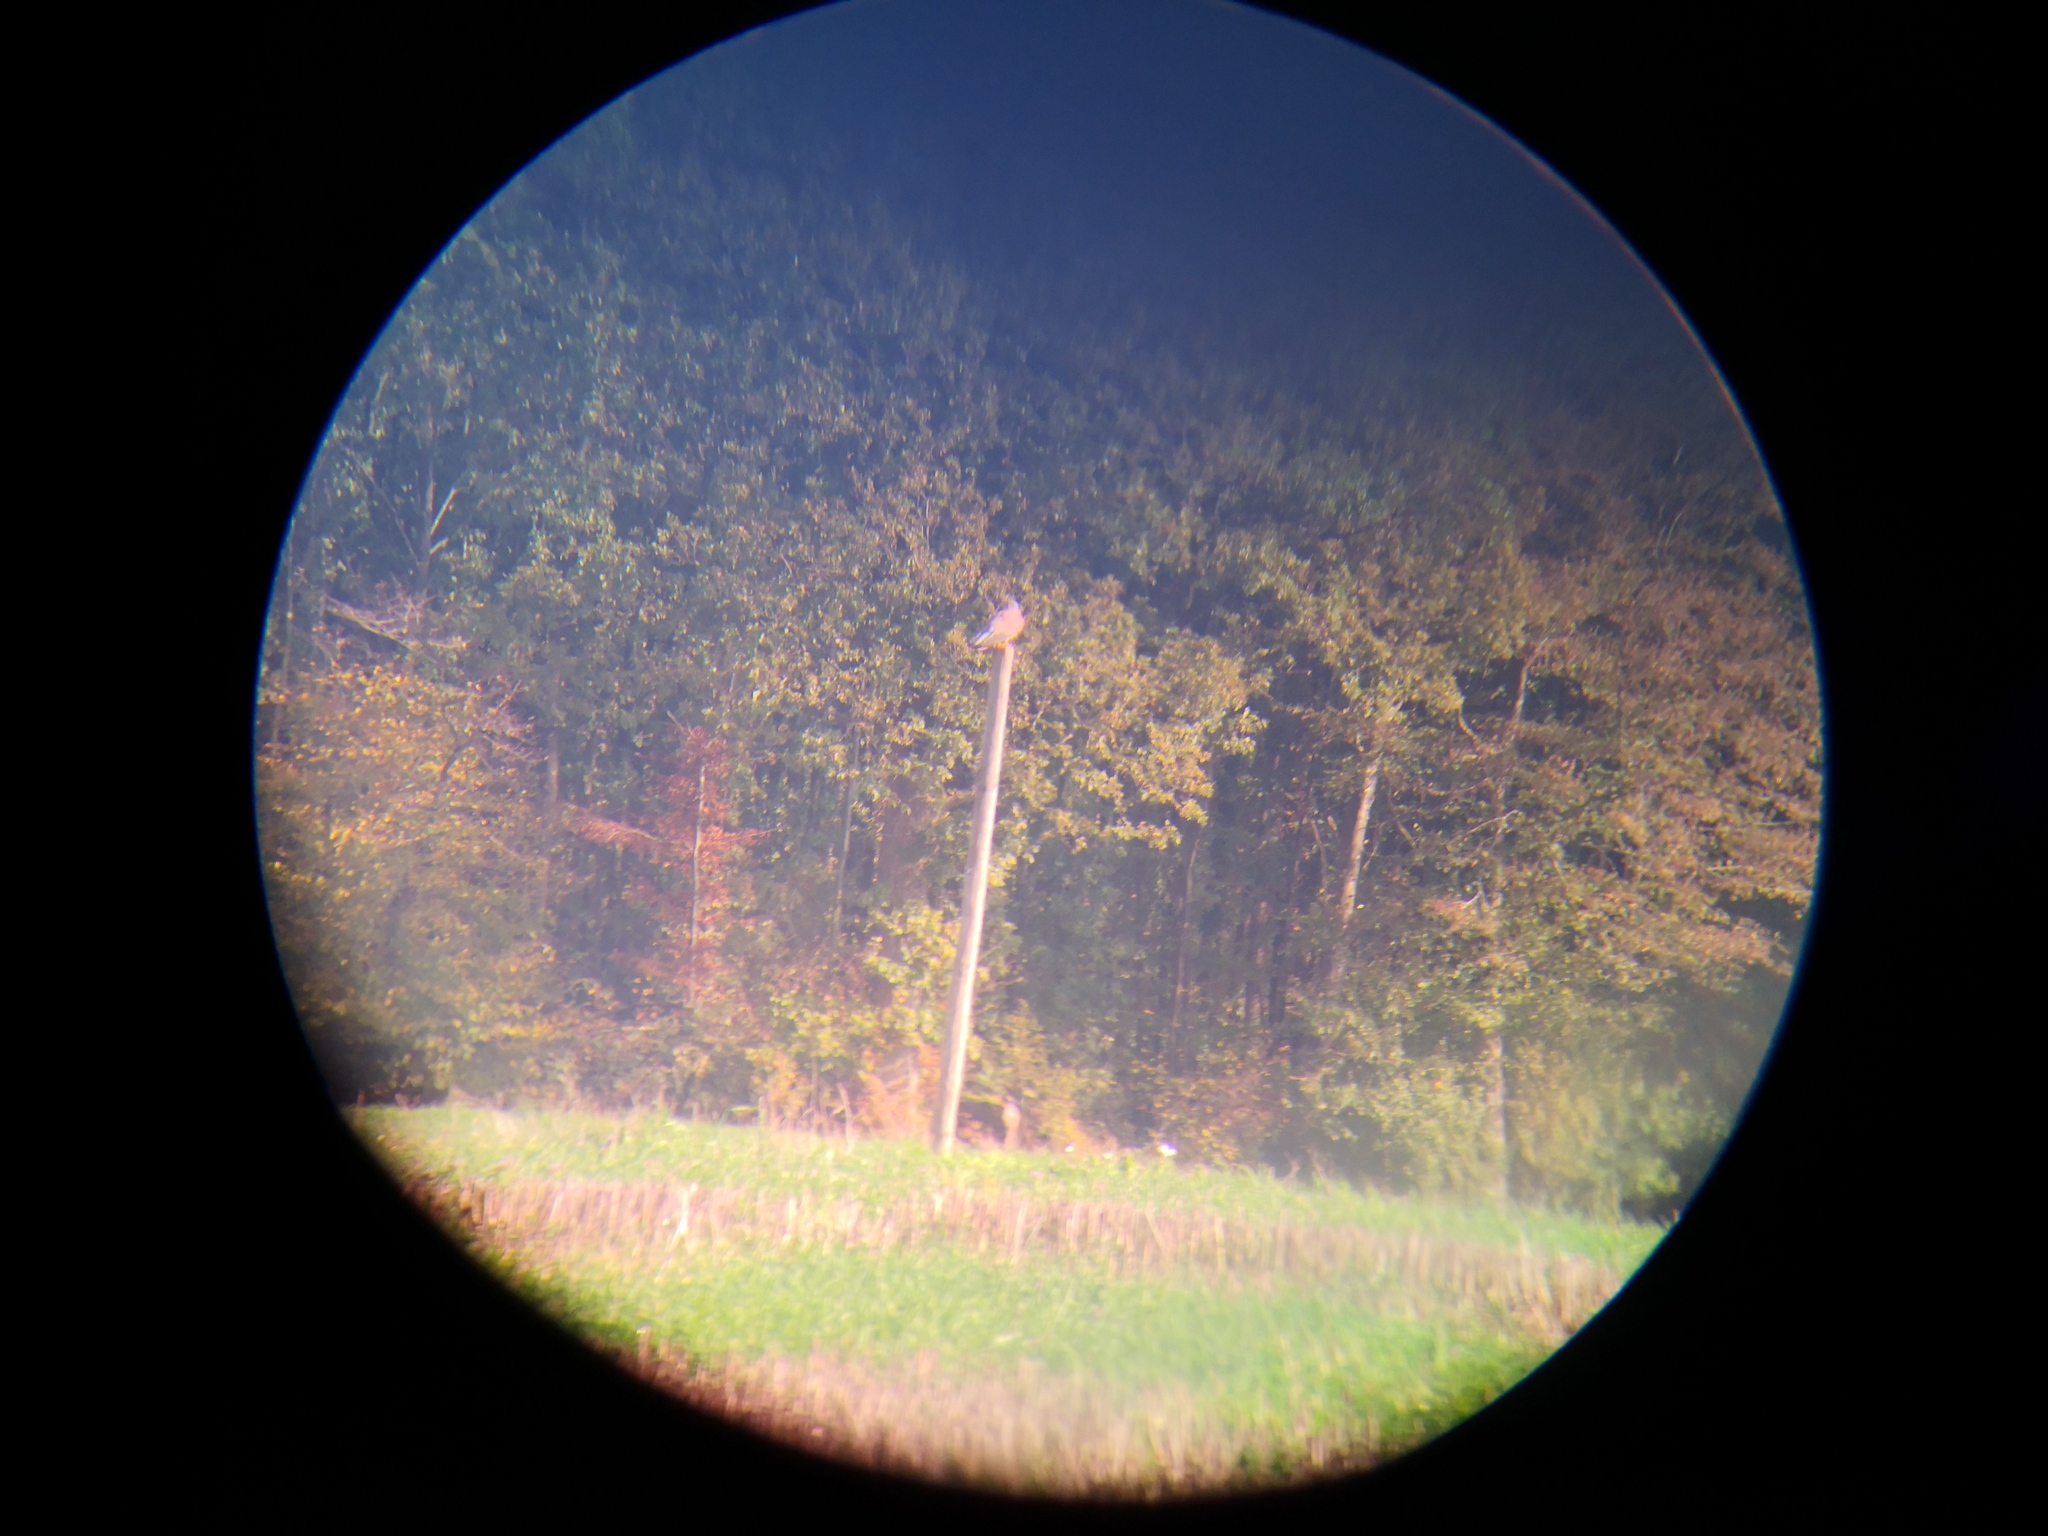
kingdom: Animalia
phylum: Chordata
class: Aves
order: Falconiformes
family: Falconidae
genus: Falco
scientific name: Falco tinnunculus
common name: Common kestrel
